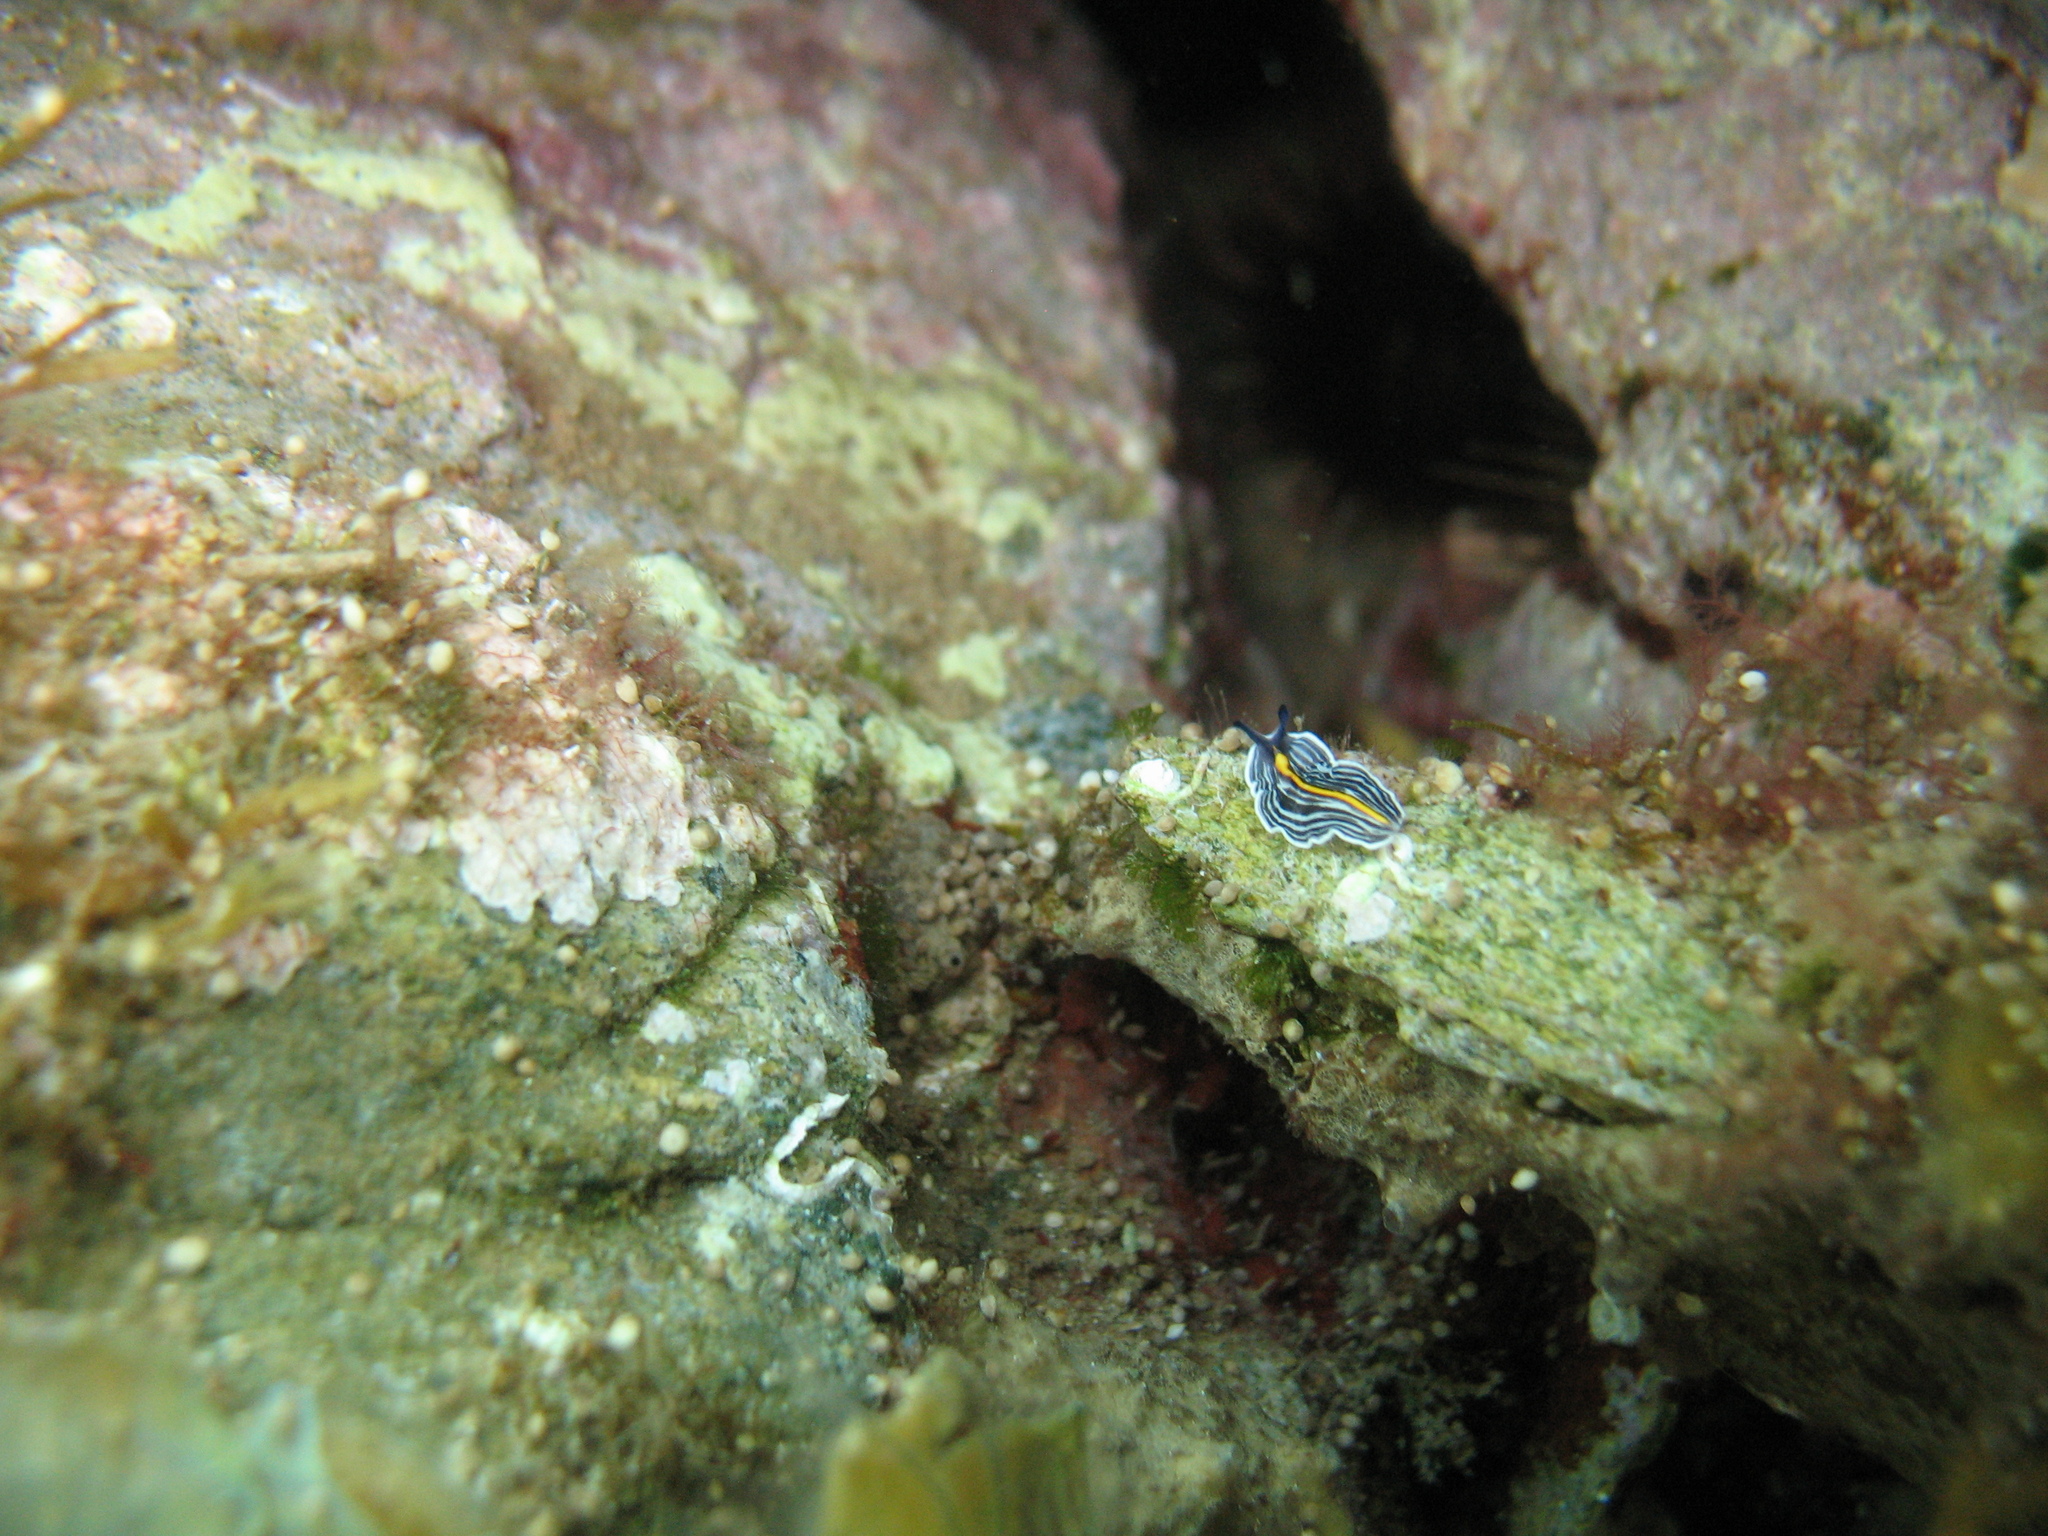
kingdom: Animalia
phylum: Platyhelminthes
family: Euryleptidae
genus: Prostheceraeus
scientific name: Prostheceraeus giesbrechtii
